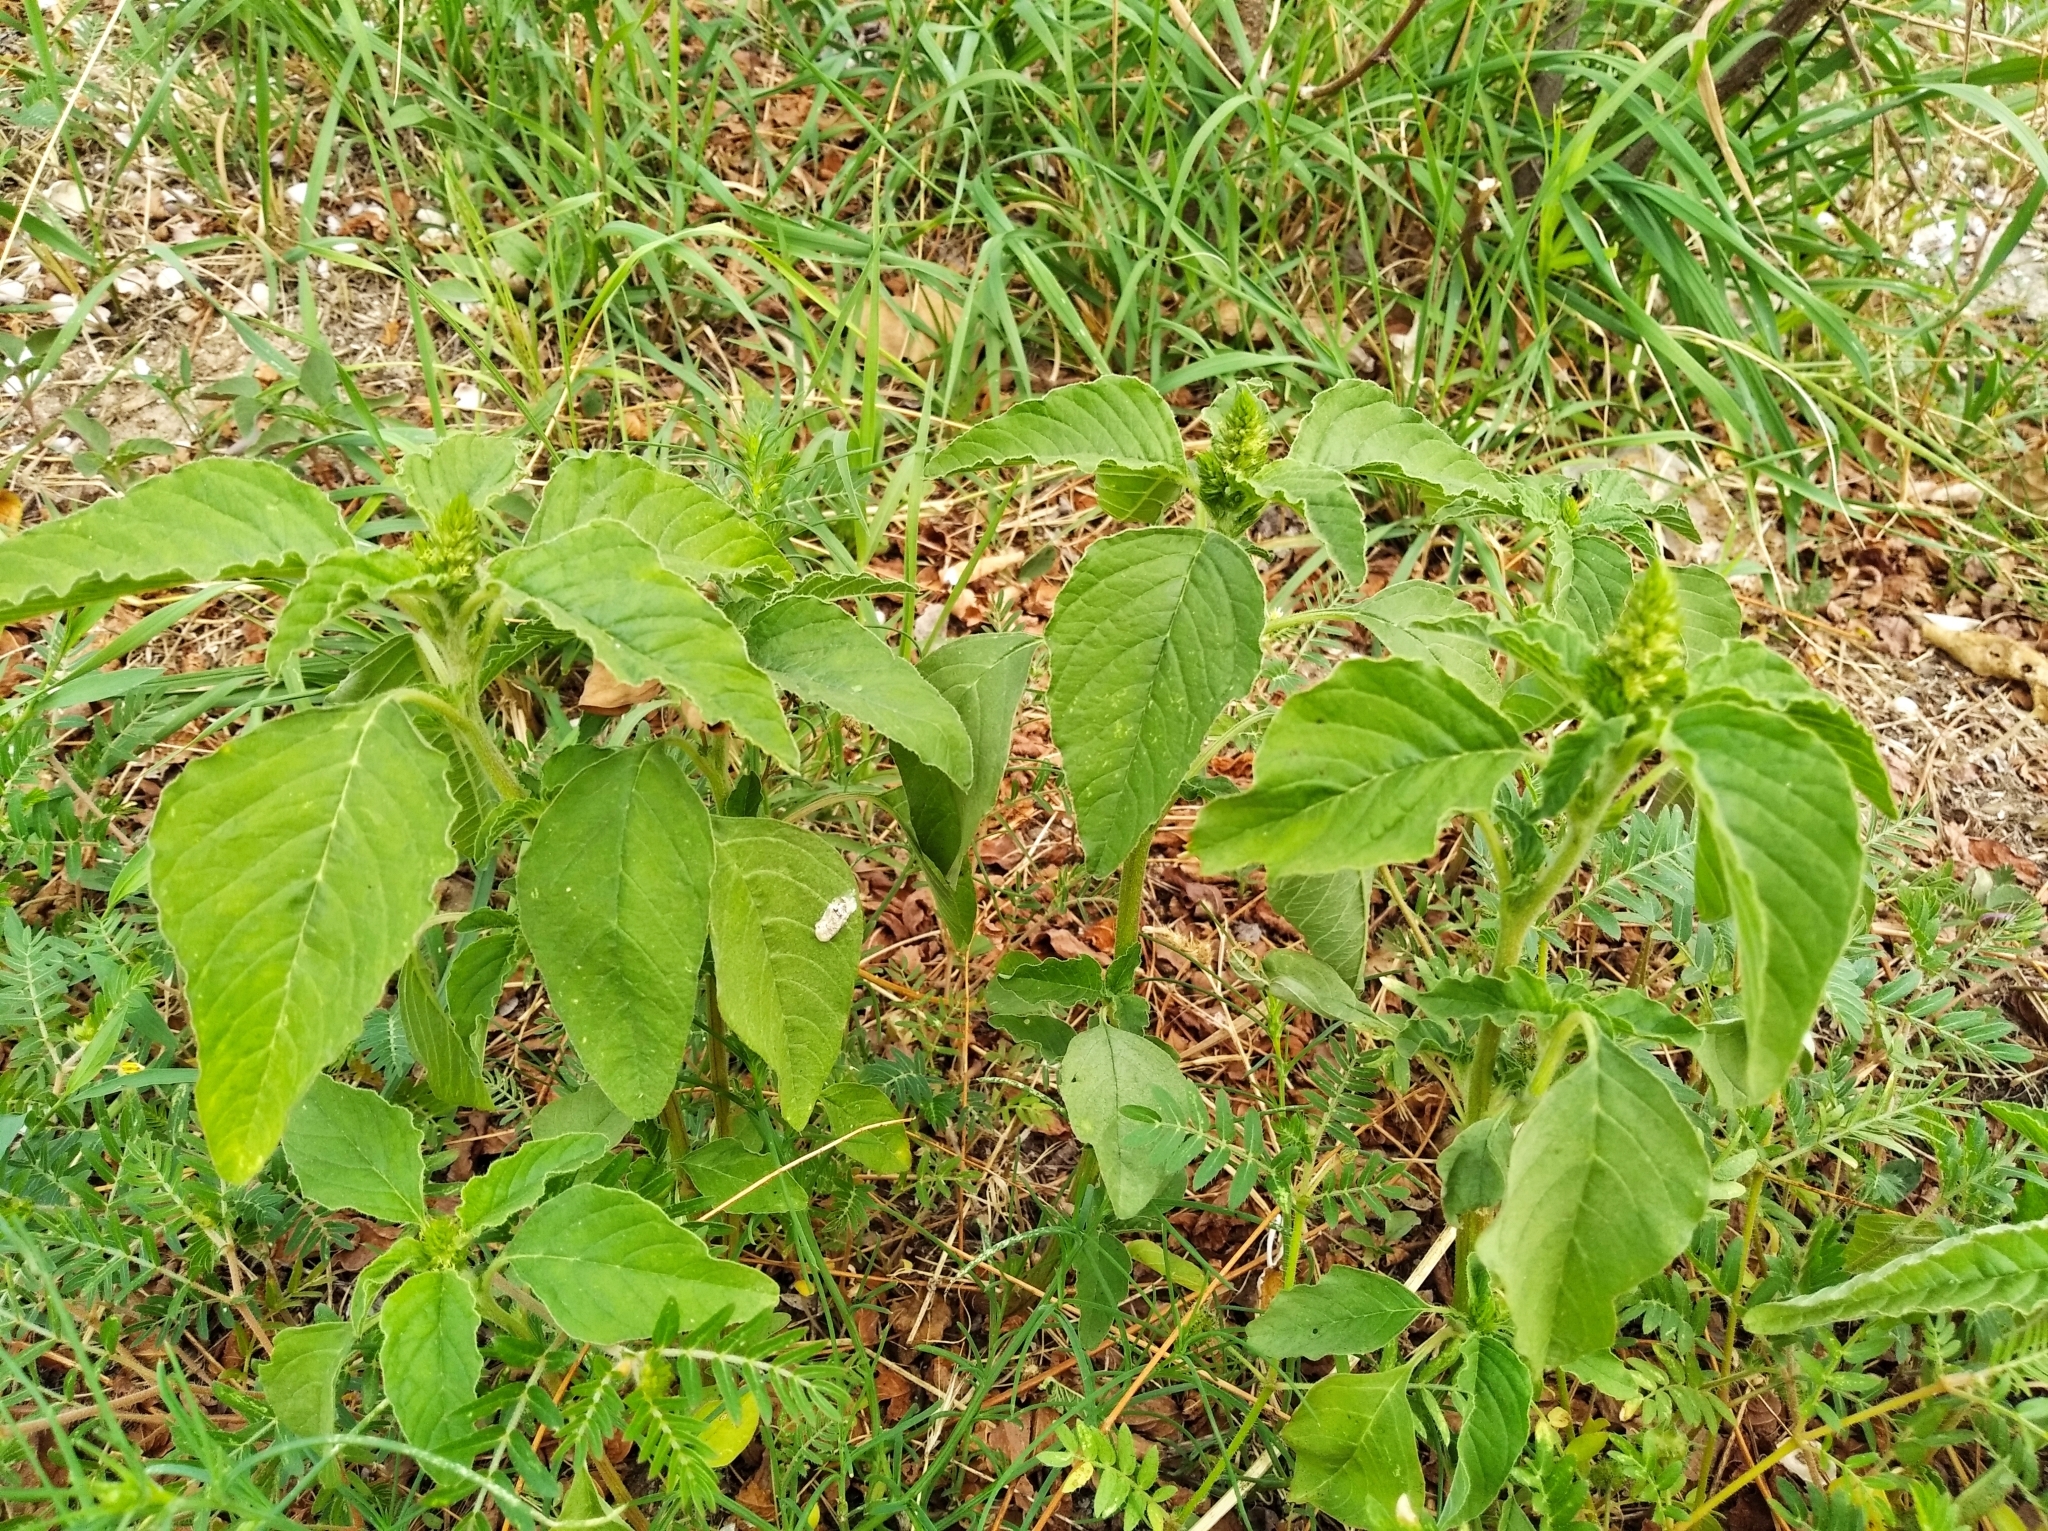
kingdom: Plantae
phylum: Tracheophyta
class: Magnoliopsida
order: Caryophyllales
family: Amaranthaceae
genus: Amaranthus
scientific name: Amaranthus retroflexus
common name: Redroot amaranth
